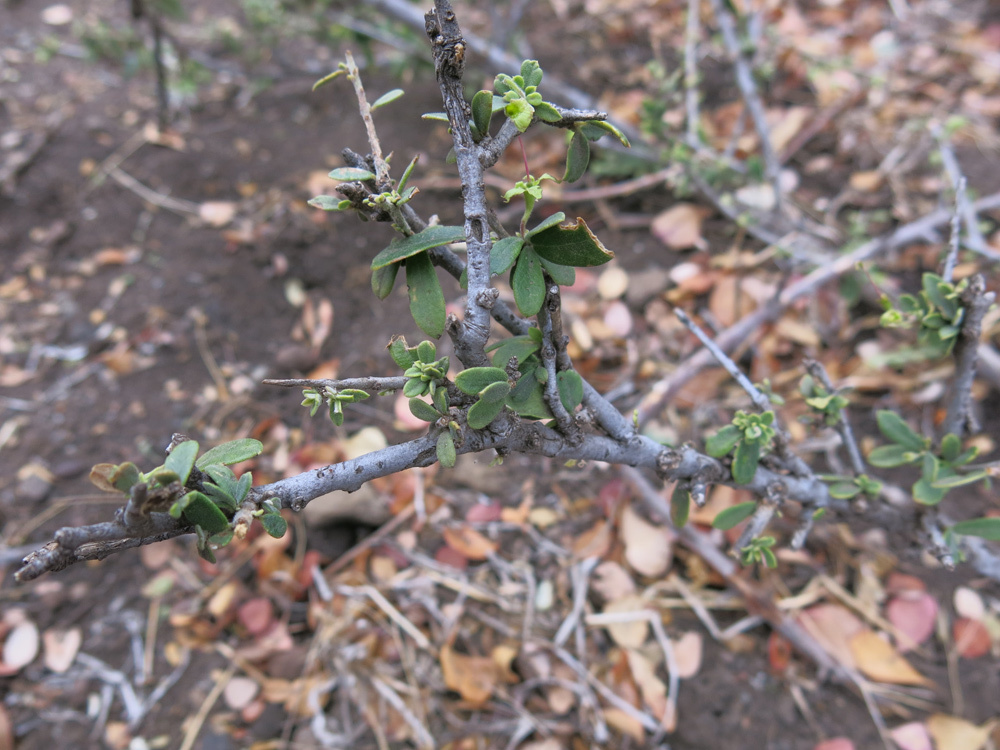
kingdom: Plantae
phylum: Tracheophyta
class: Magnoliopsida
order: Brassicales
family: Capparaceae
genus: Maerua
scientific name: Maerua parvifolia
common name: Dwarf bush-cherry
